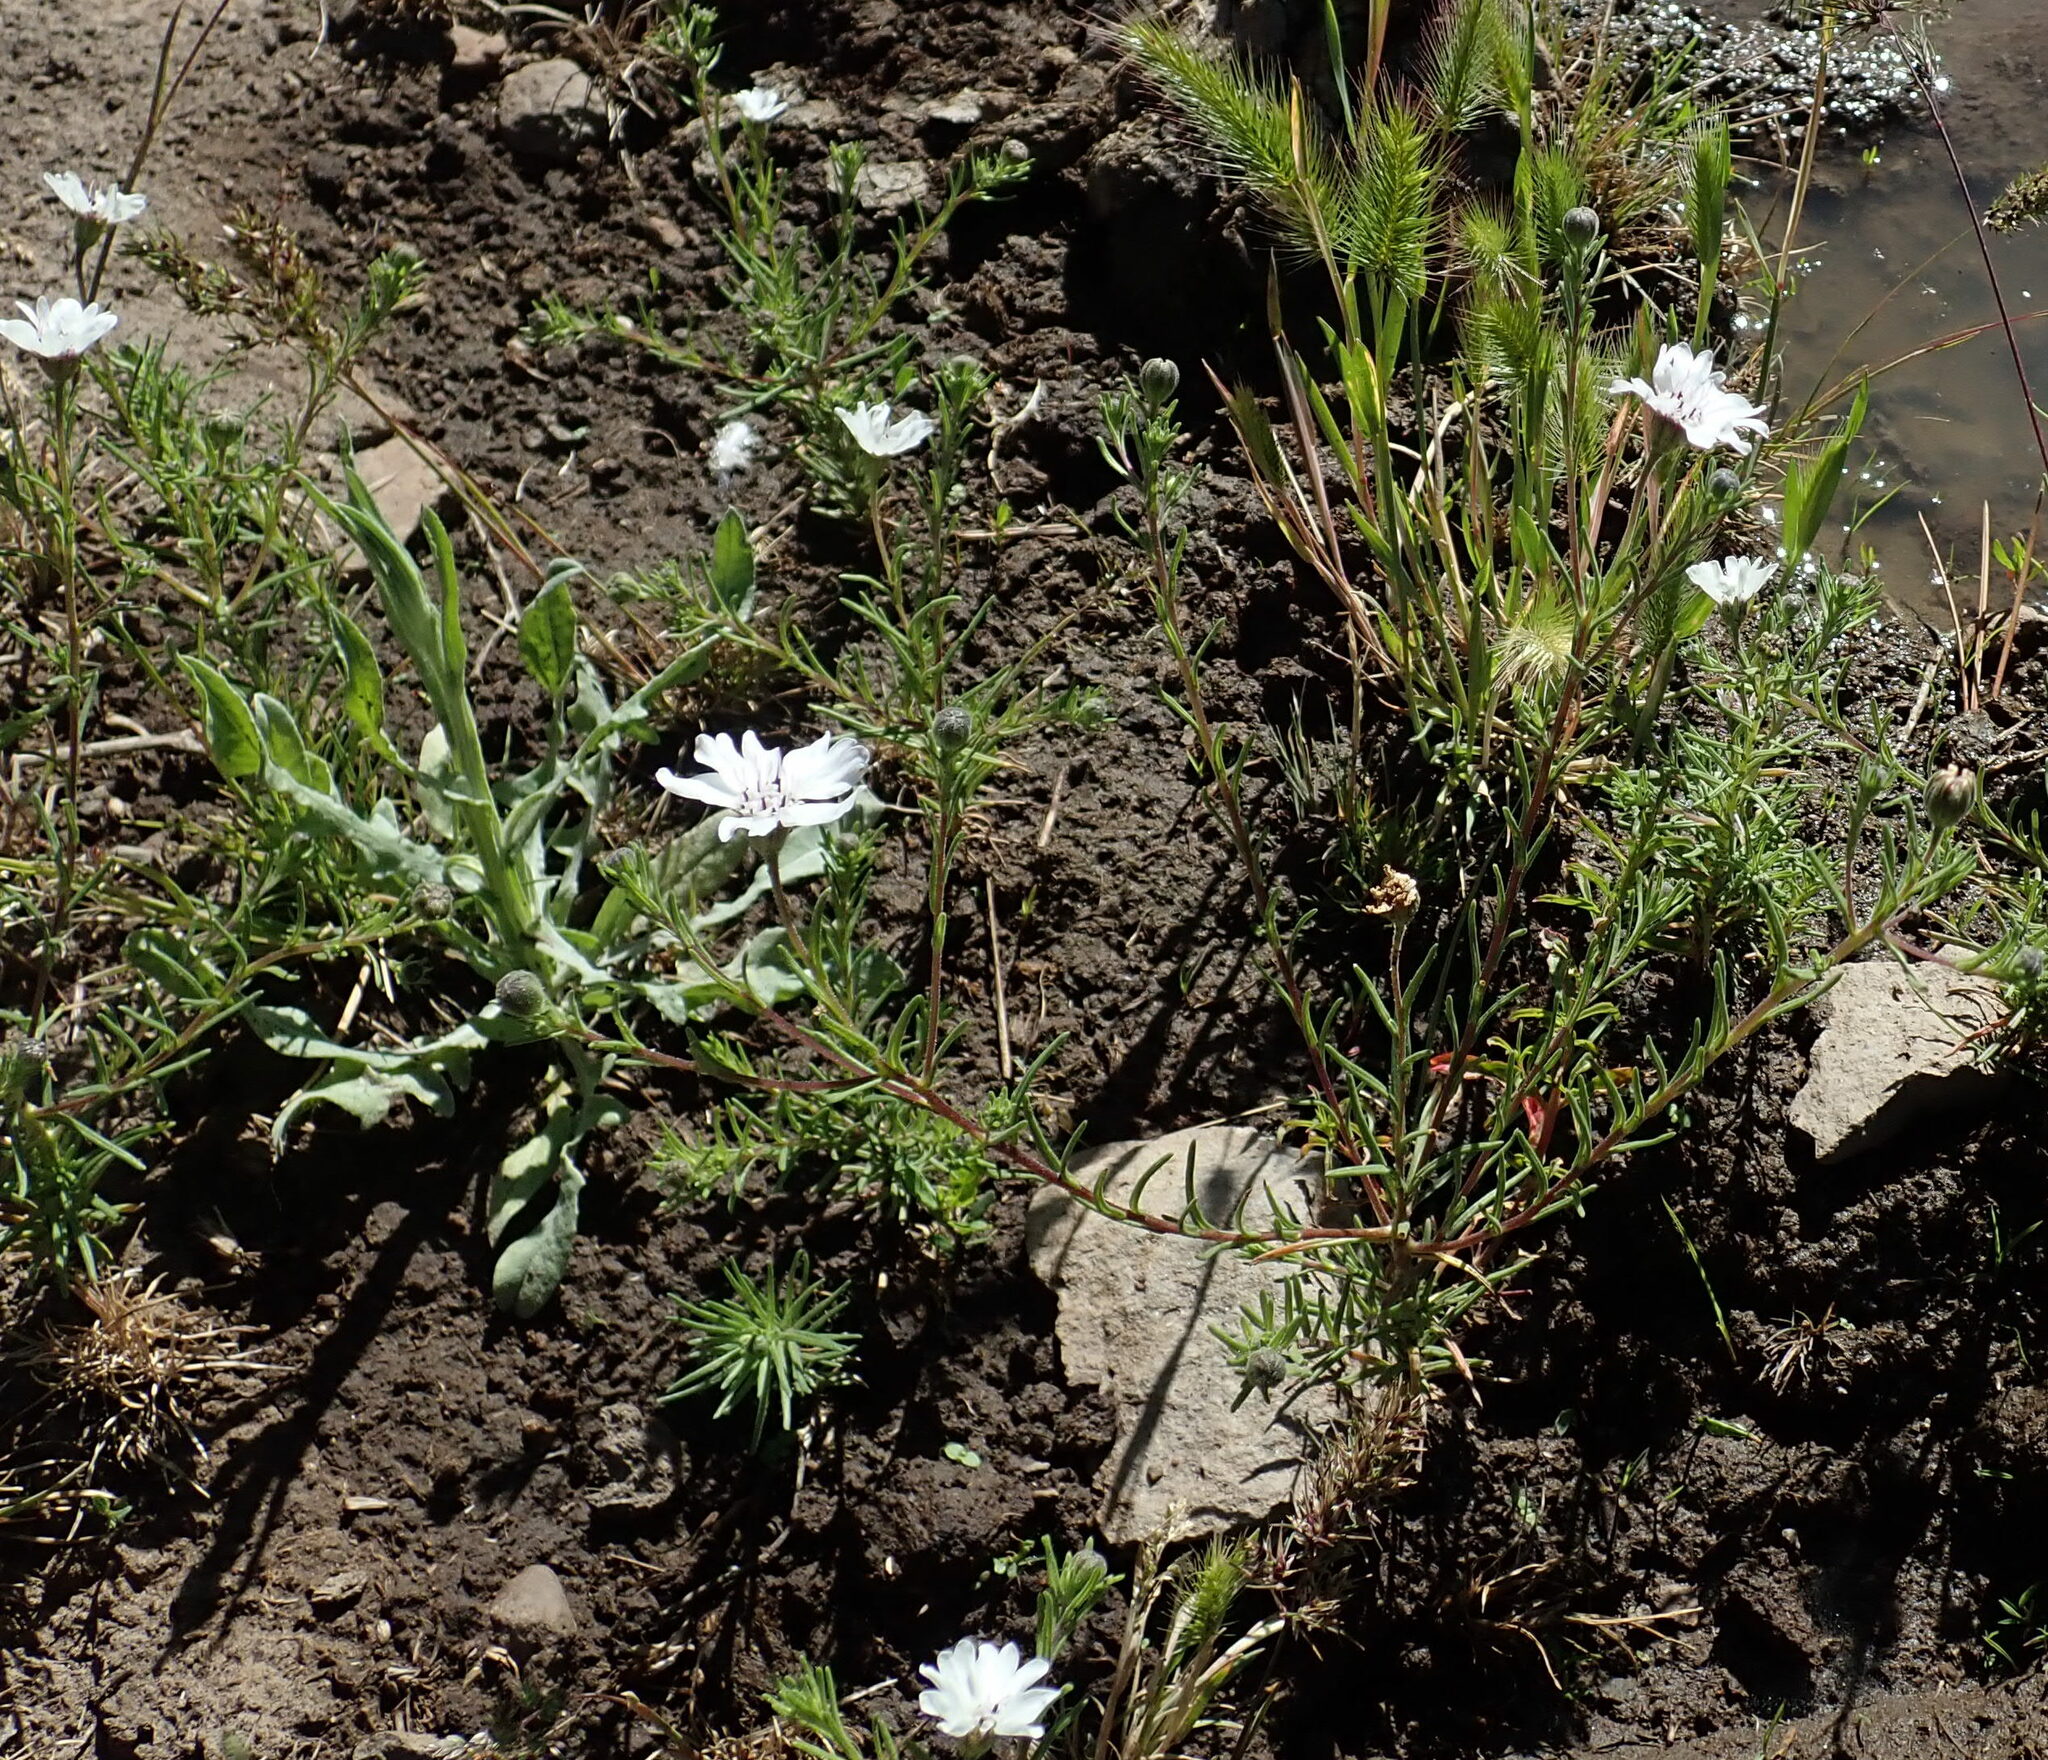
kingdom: Plantae
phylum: Tracheophyta
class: Magnoliopsida
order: Asterales
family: Asteraceae
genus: Blepharipappus
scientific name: Blepharipappus scaber
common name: Rough blepharipappus
